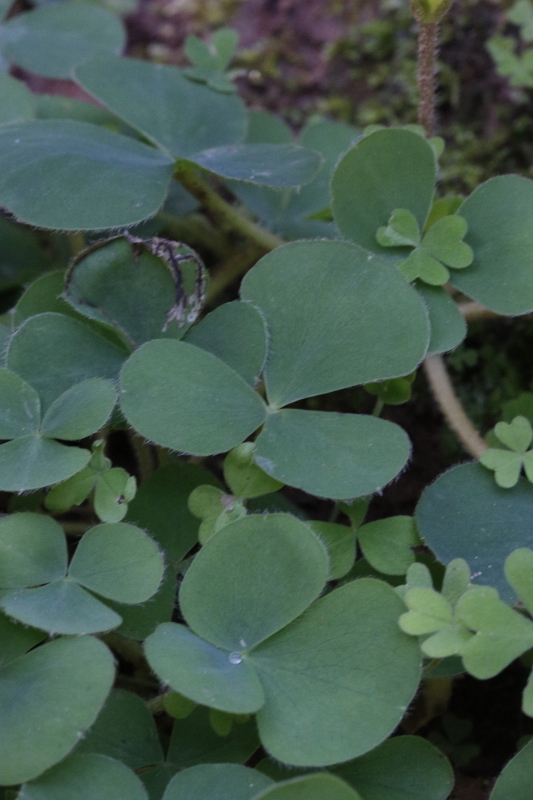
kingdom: Plantae
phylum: Tracheophyta
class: Magnoliopsida
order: Oxalidales
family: Oxalidaceae
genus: Oxalis
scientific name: Oxalis purpurea
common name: Purple woodsorrel
